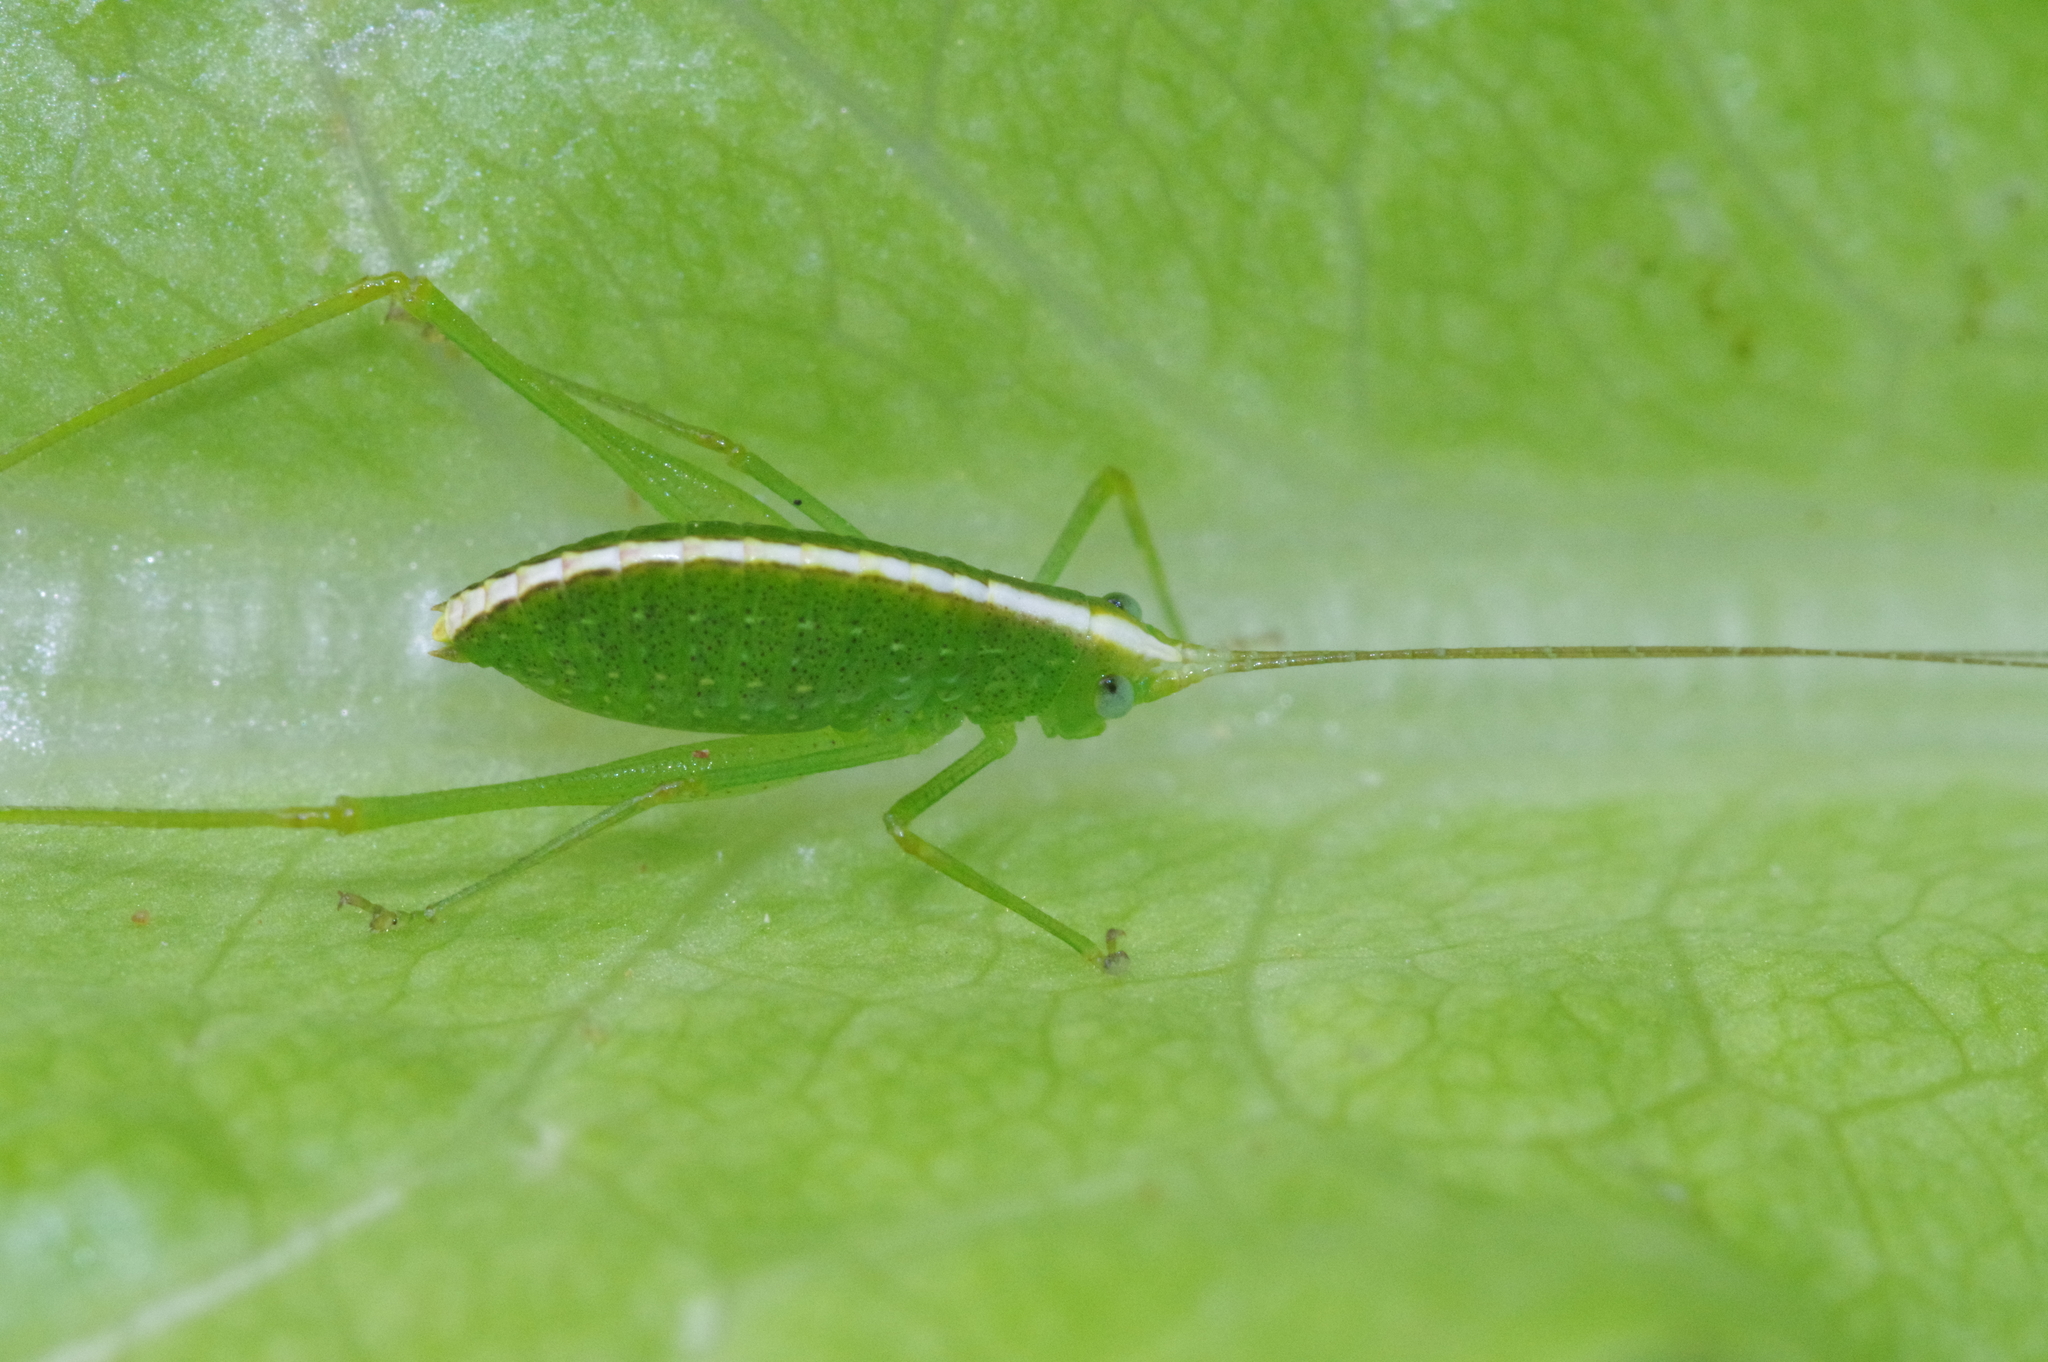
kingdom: Animalia
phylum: Arthropoda
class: Insecta
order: Orthoptera
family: Tettigoniidae
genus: Phaulula
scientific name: Phaulula daitoensis
